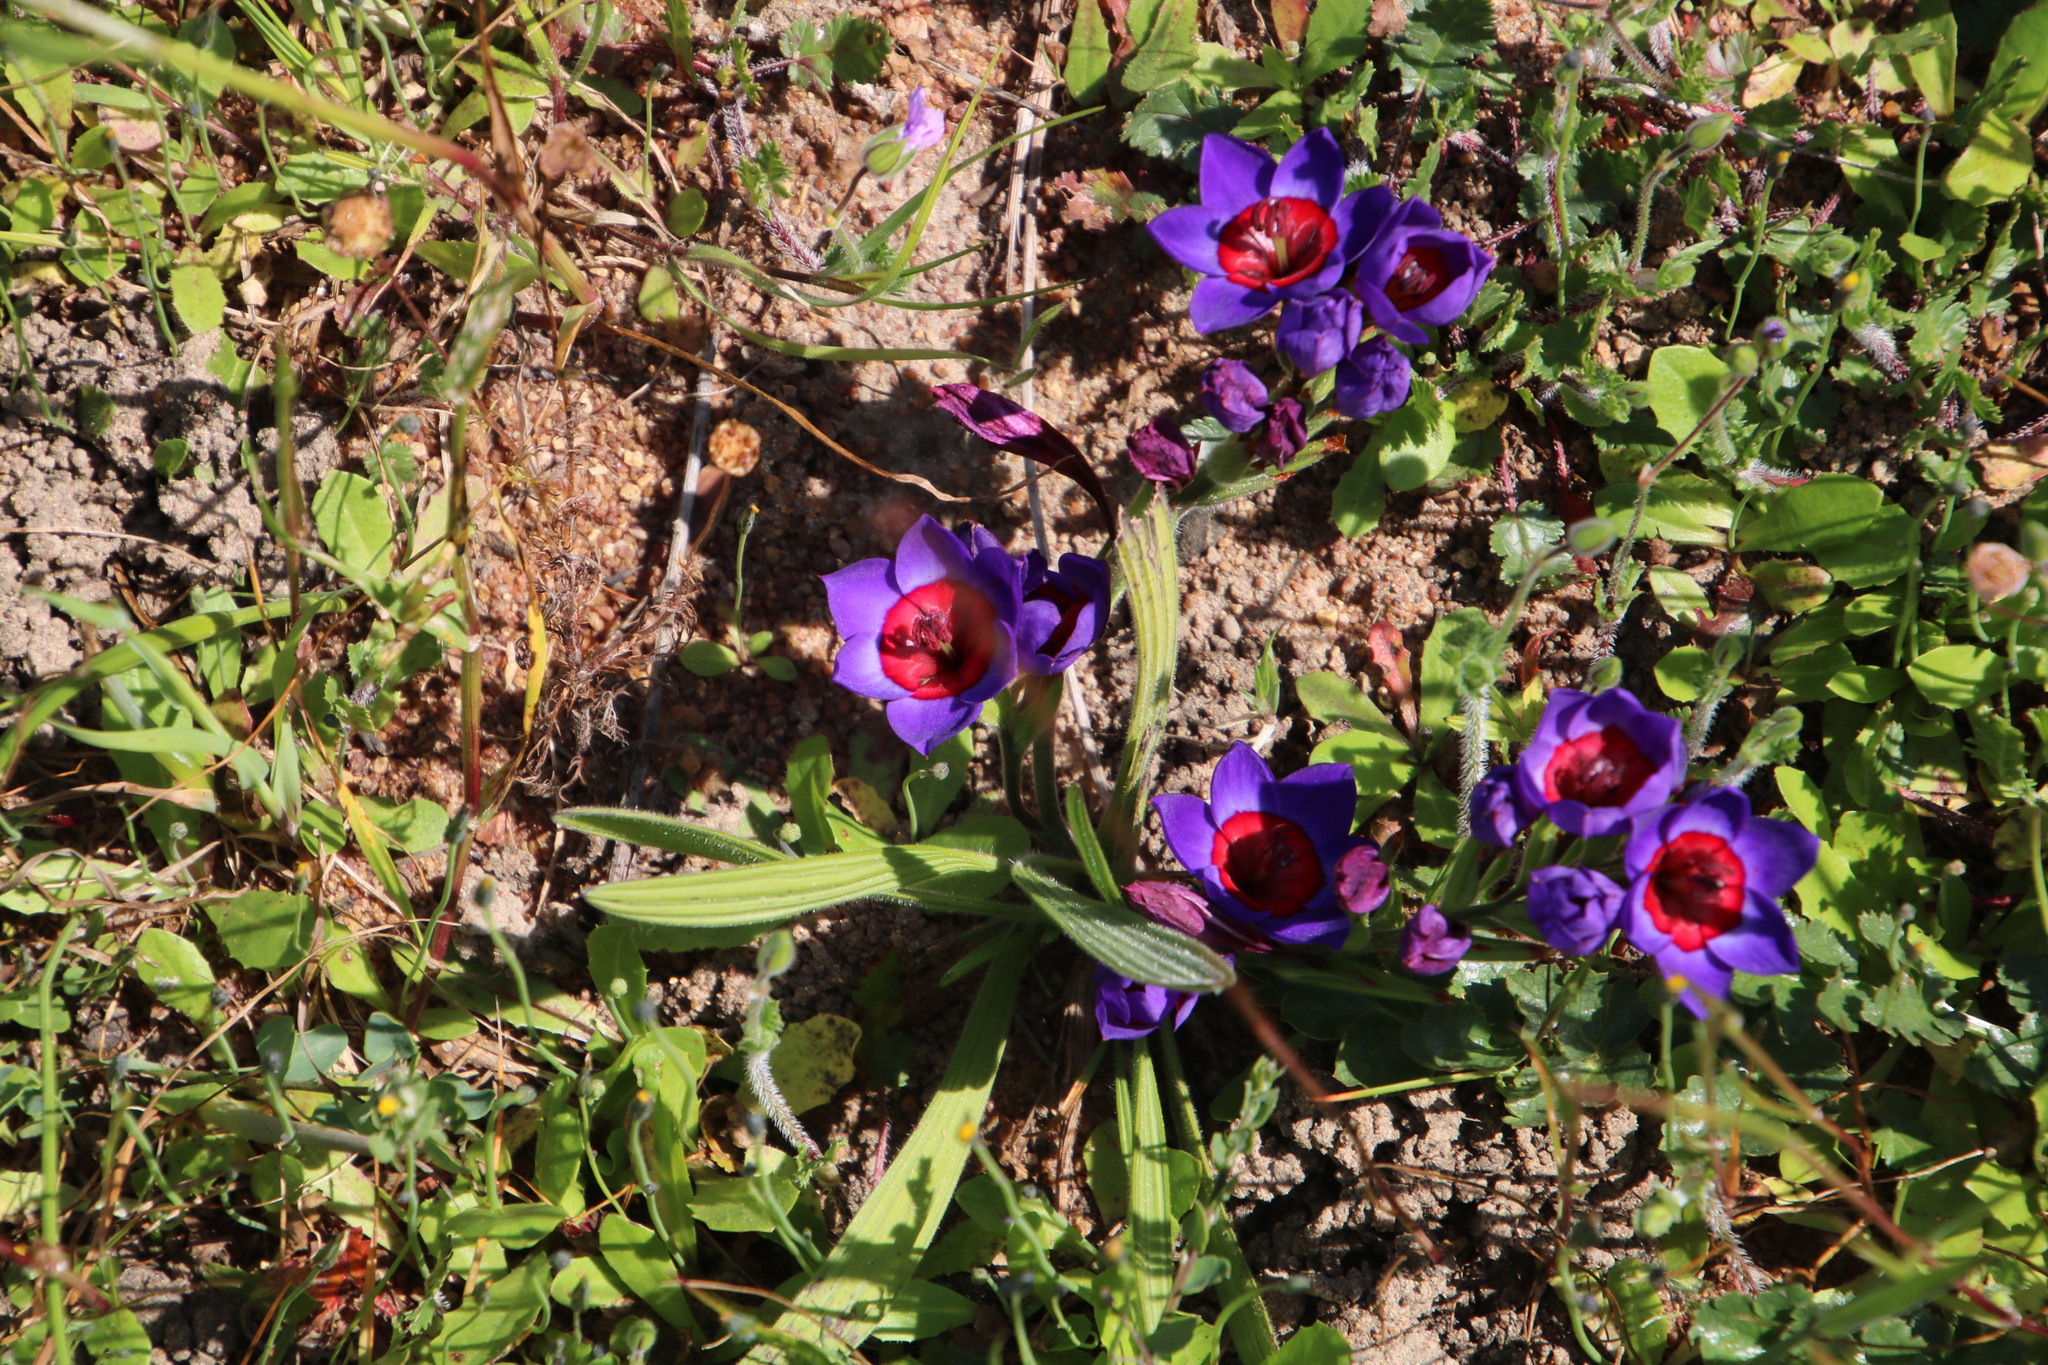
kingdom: Plantae
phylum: Tracheophyta
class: Liliopsida
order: Asparagales
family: Iridaceae
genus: Babiana
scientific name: Babiana rubrocyanea
